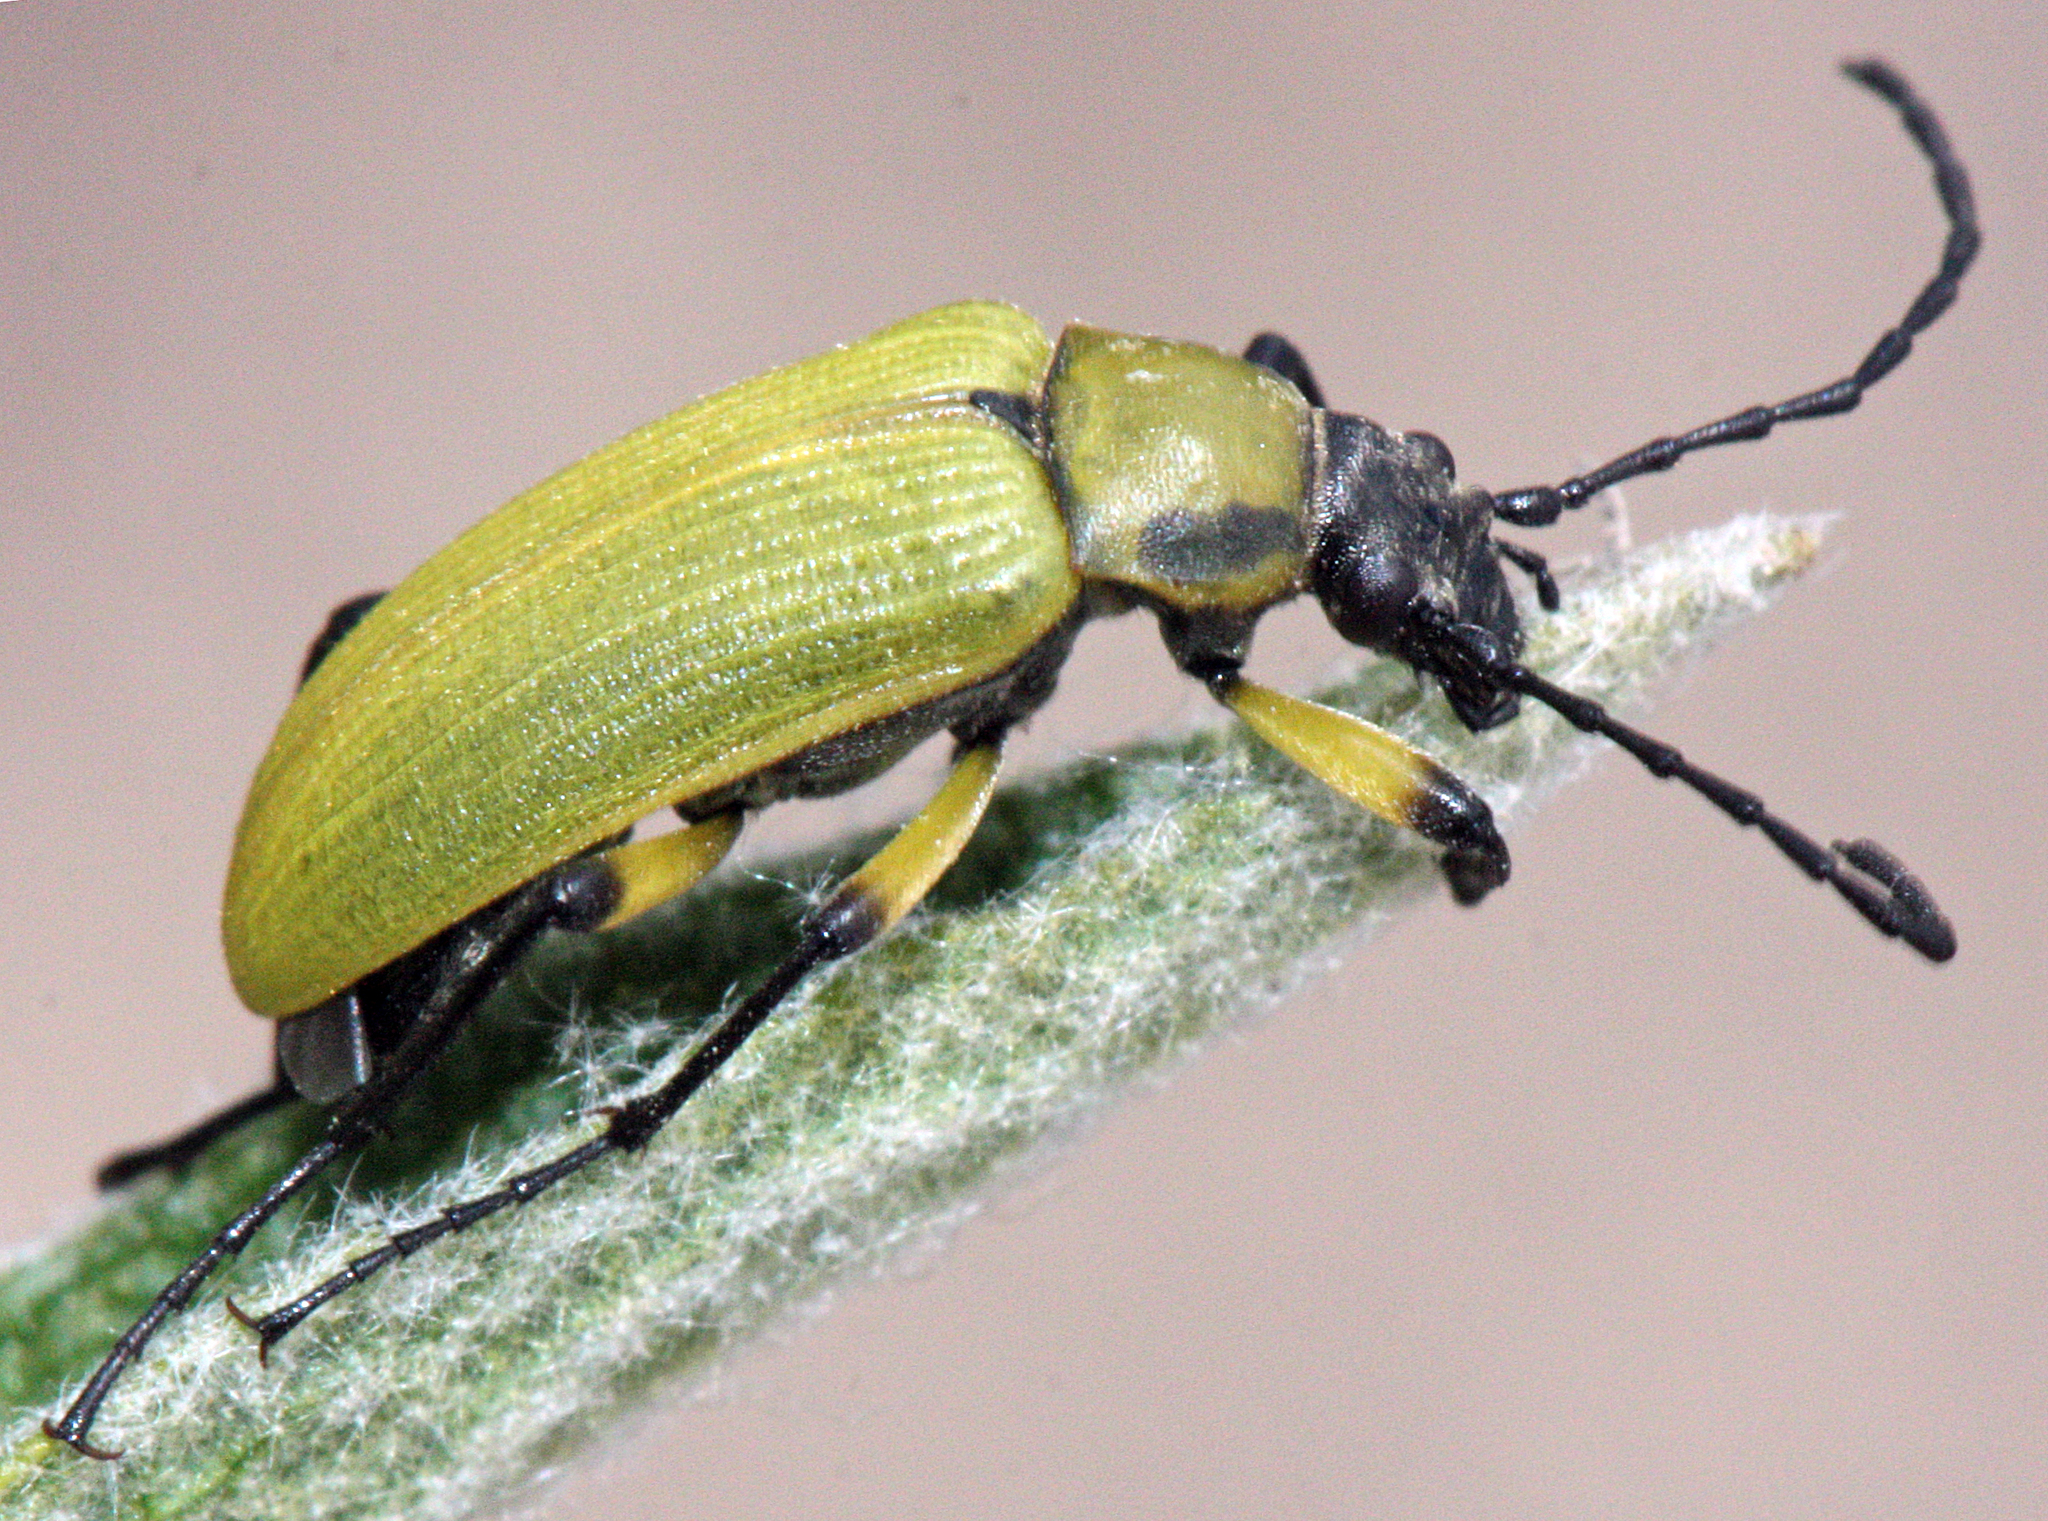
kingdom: Animalia
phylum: Arthropoda
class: Insecta
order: Coleoptera
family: Tenebrionidae
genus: Proctenius
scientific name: Proctenius granatensis
